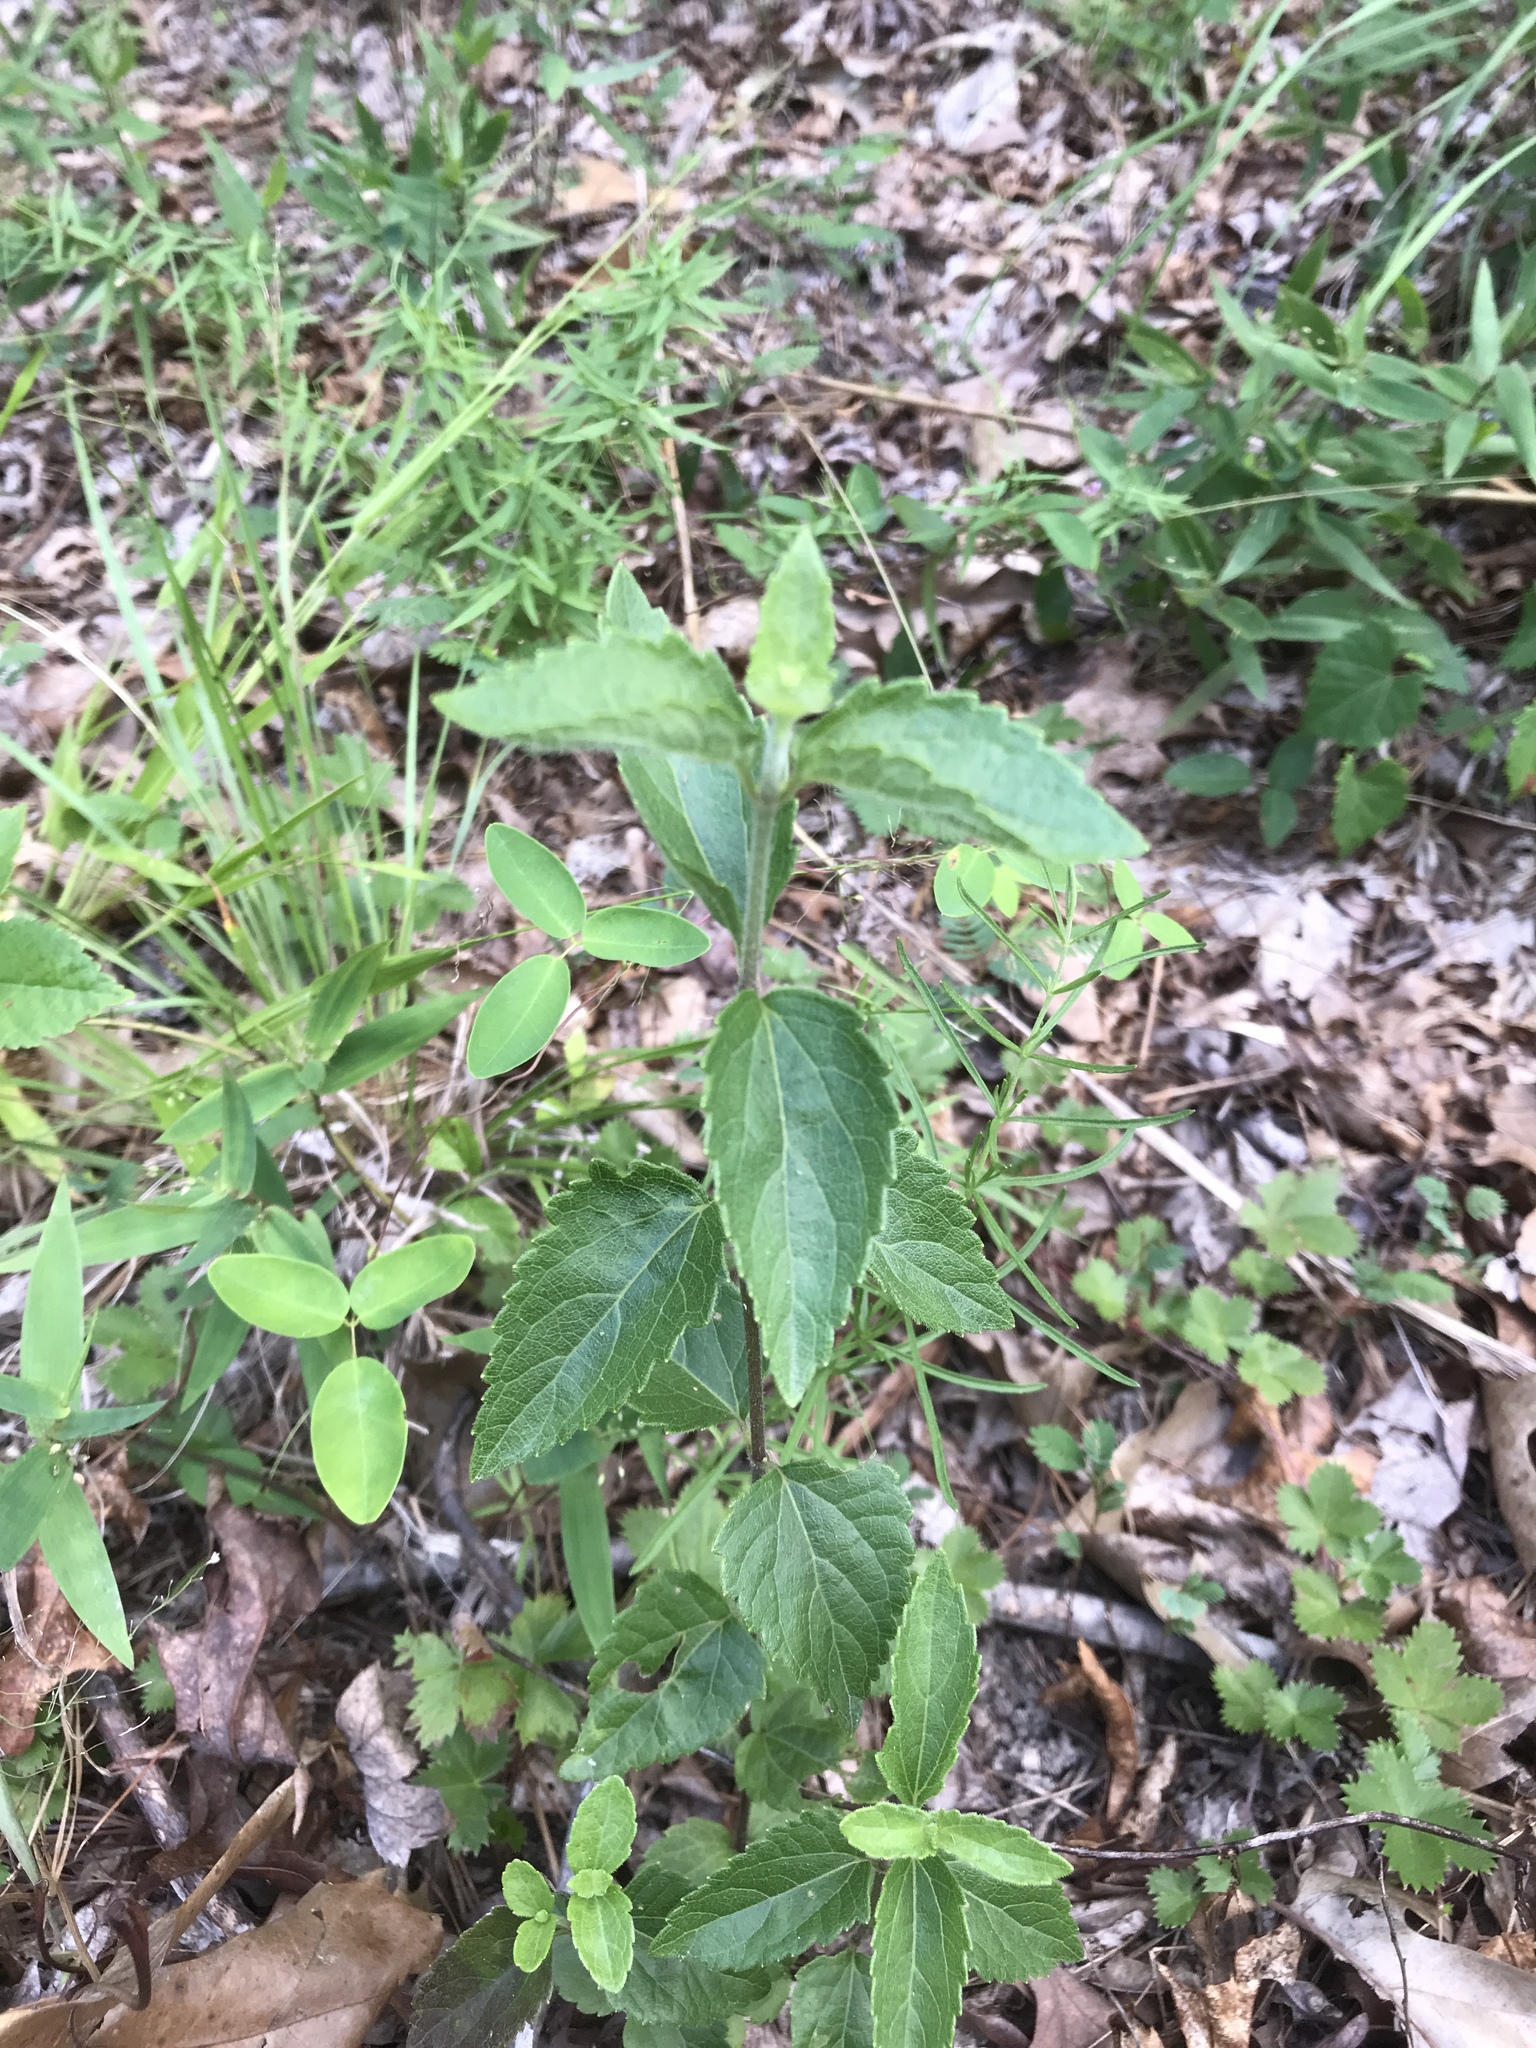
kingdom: Plantae
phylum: Tracheophyta
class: Magnoliopsida
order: Asterales
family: Asteraceae
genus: Ageratina
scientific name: Ageratina aromatica
